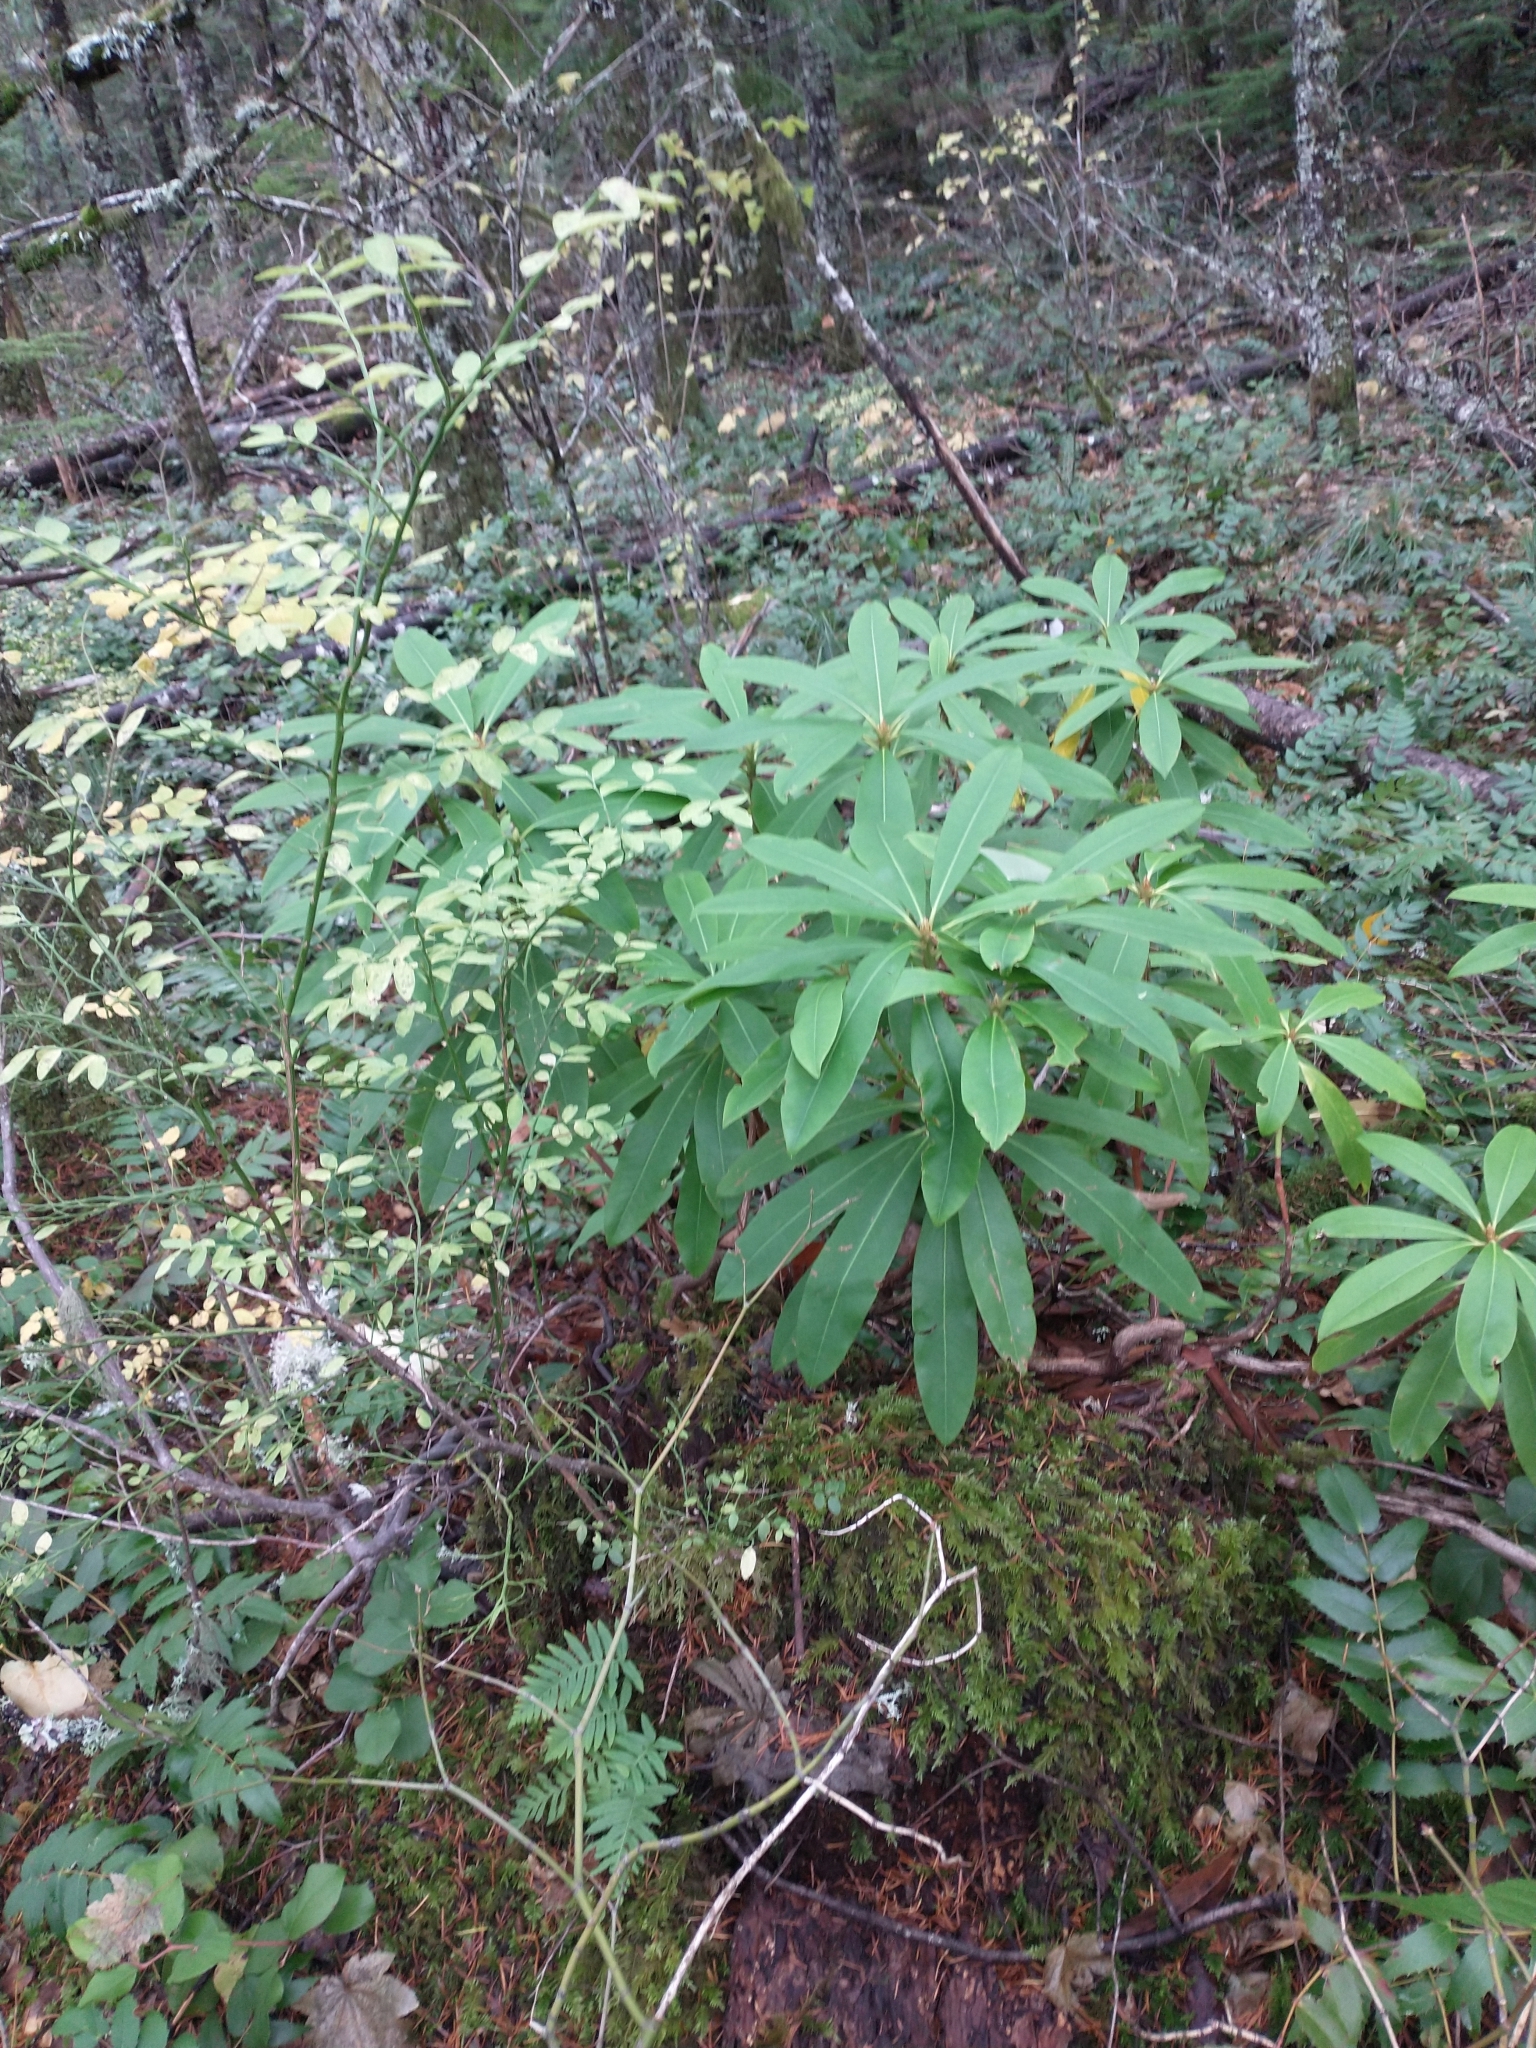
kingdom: Plantae
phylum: Tracheophyta
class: Magnoliopsida
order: Ericales
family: Ericaceae
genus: Rhododendron
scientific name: Rhododendron macrophyllum
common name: California rose bay
